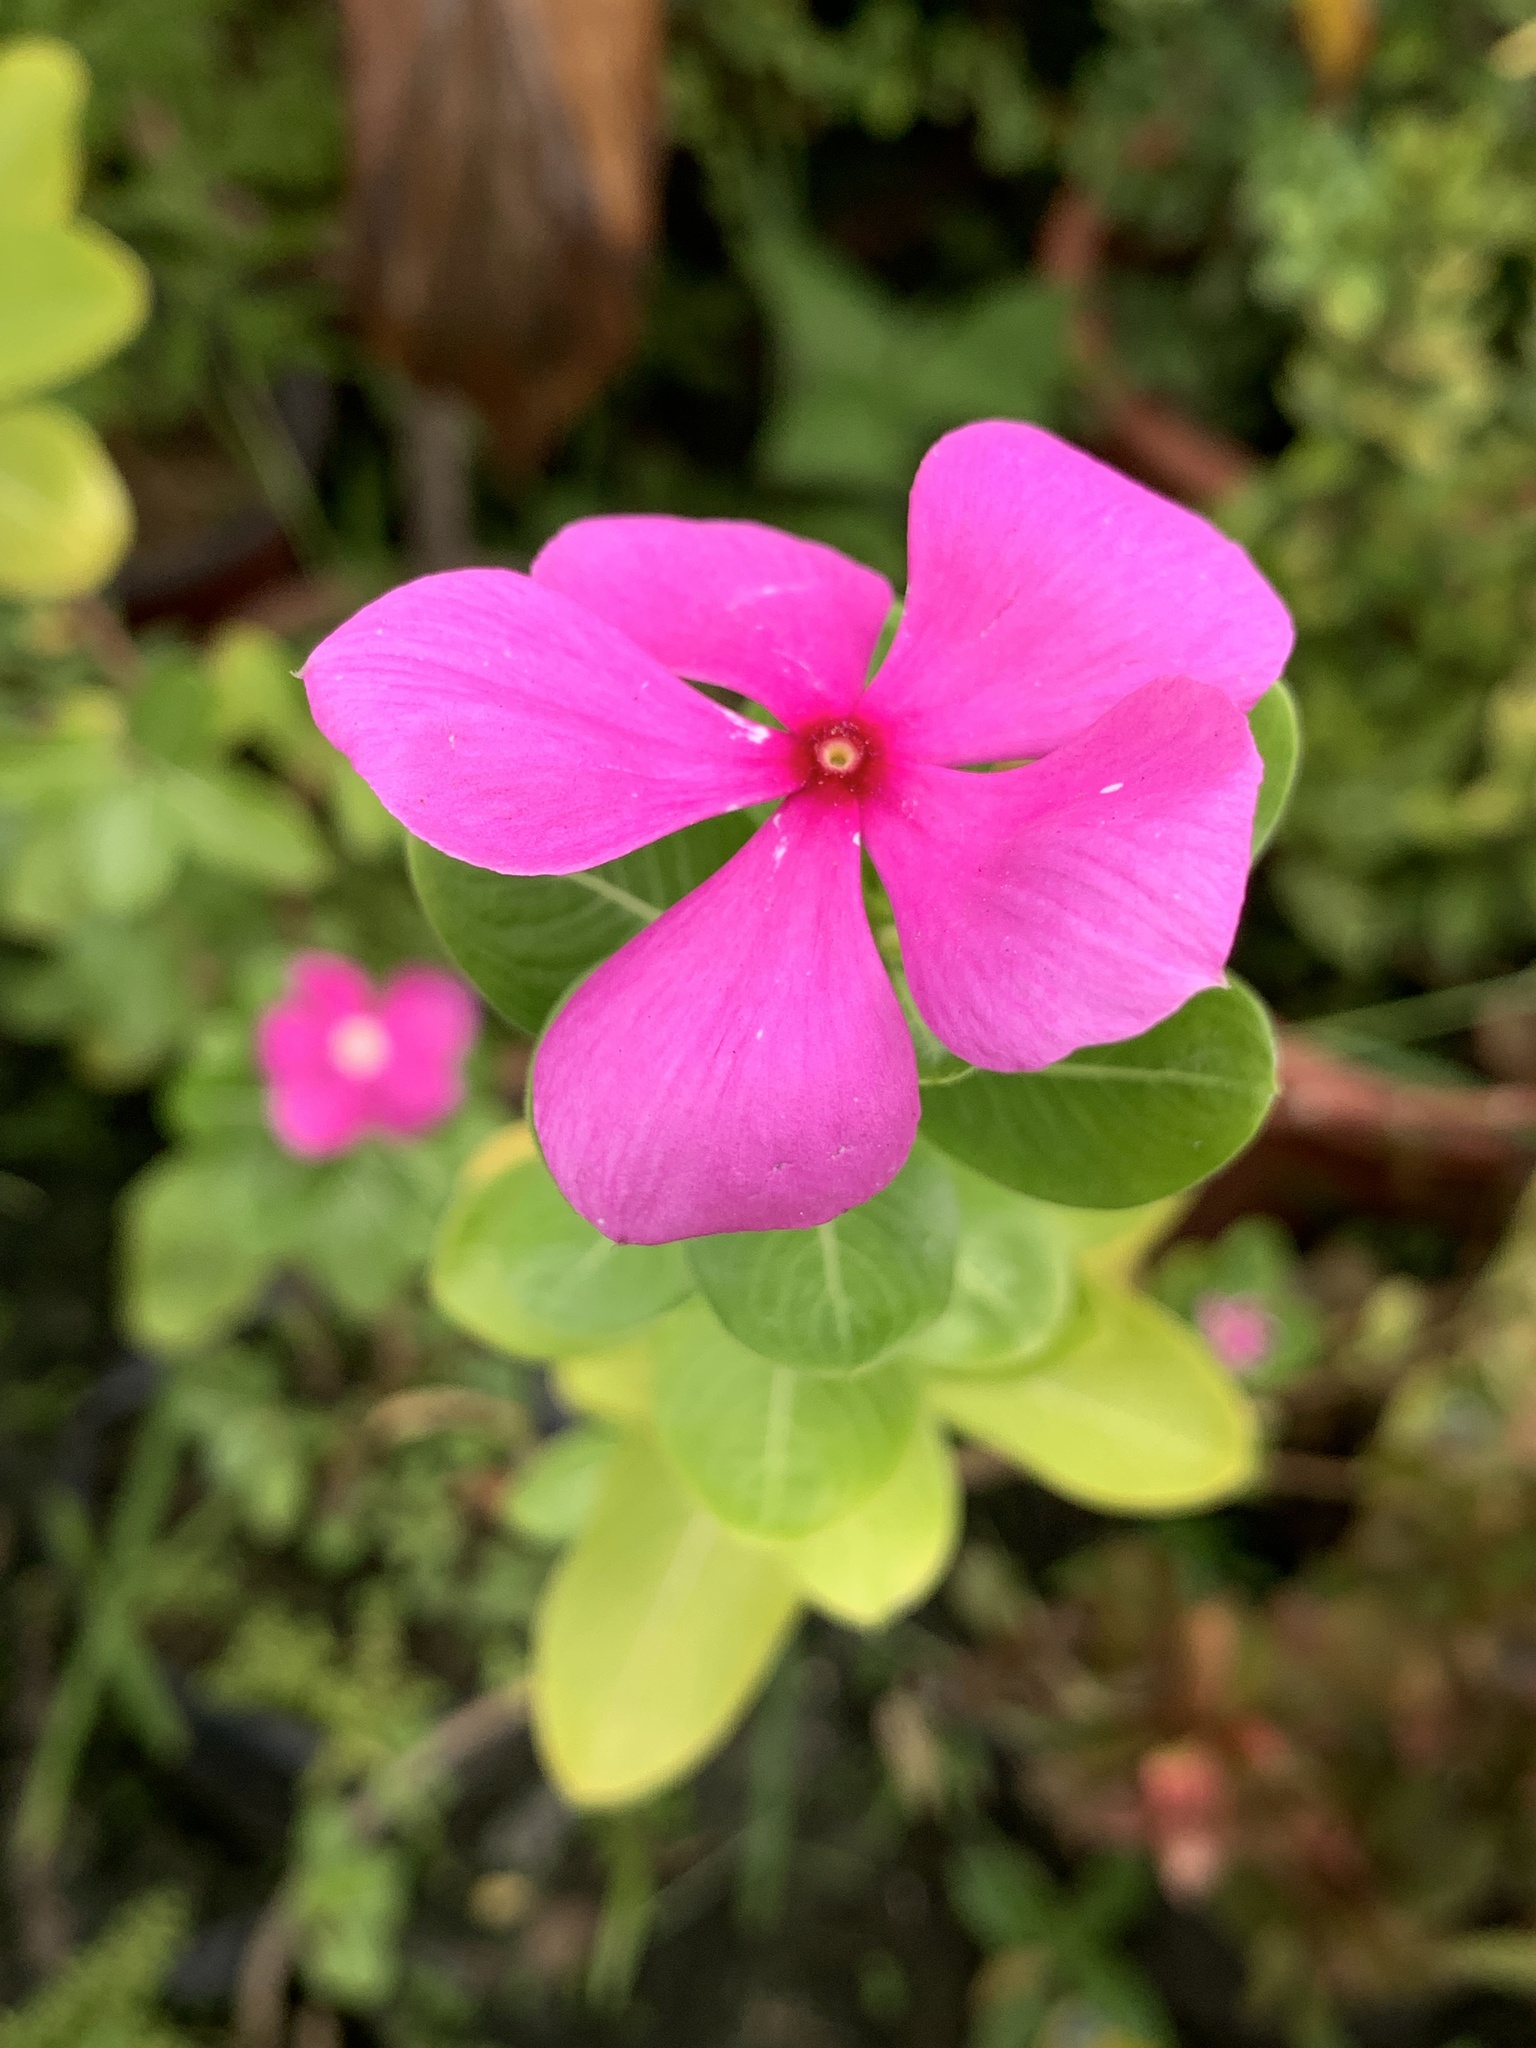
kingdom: Plantae
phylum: Tracheophyta
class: Magnoliopsida
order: Gentianales
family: Apocynaceae
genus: Catharanthus
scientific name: Catharanthus roseus
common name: Madagascar periwinkle
